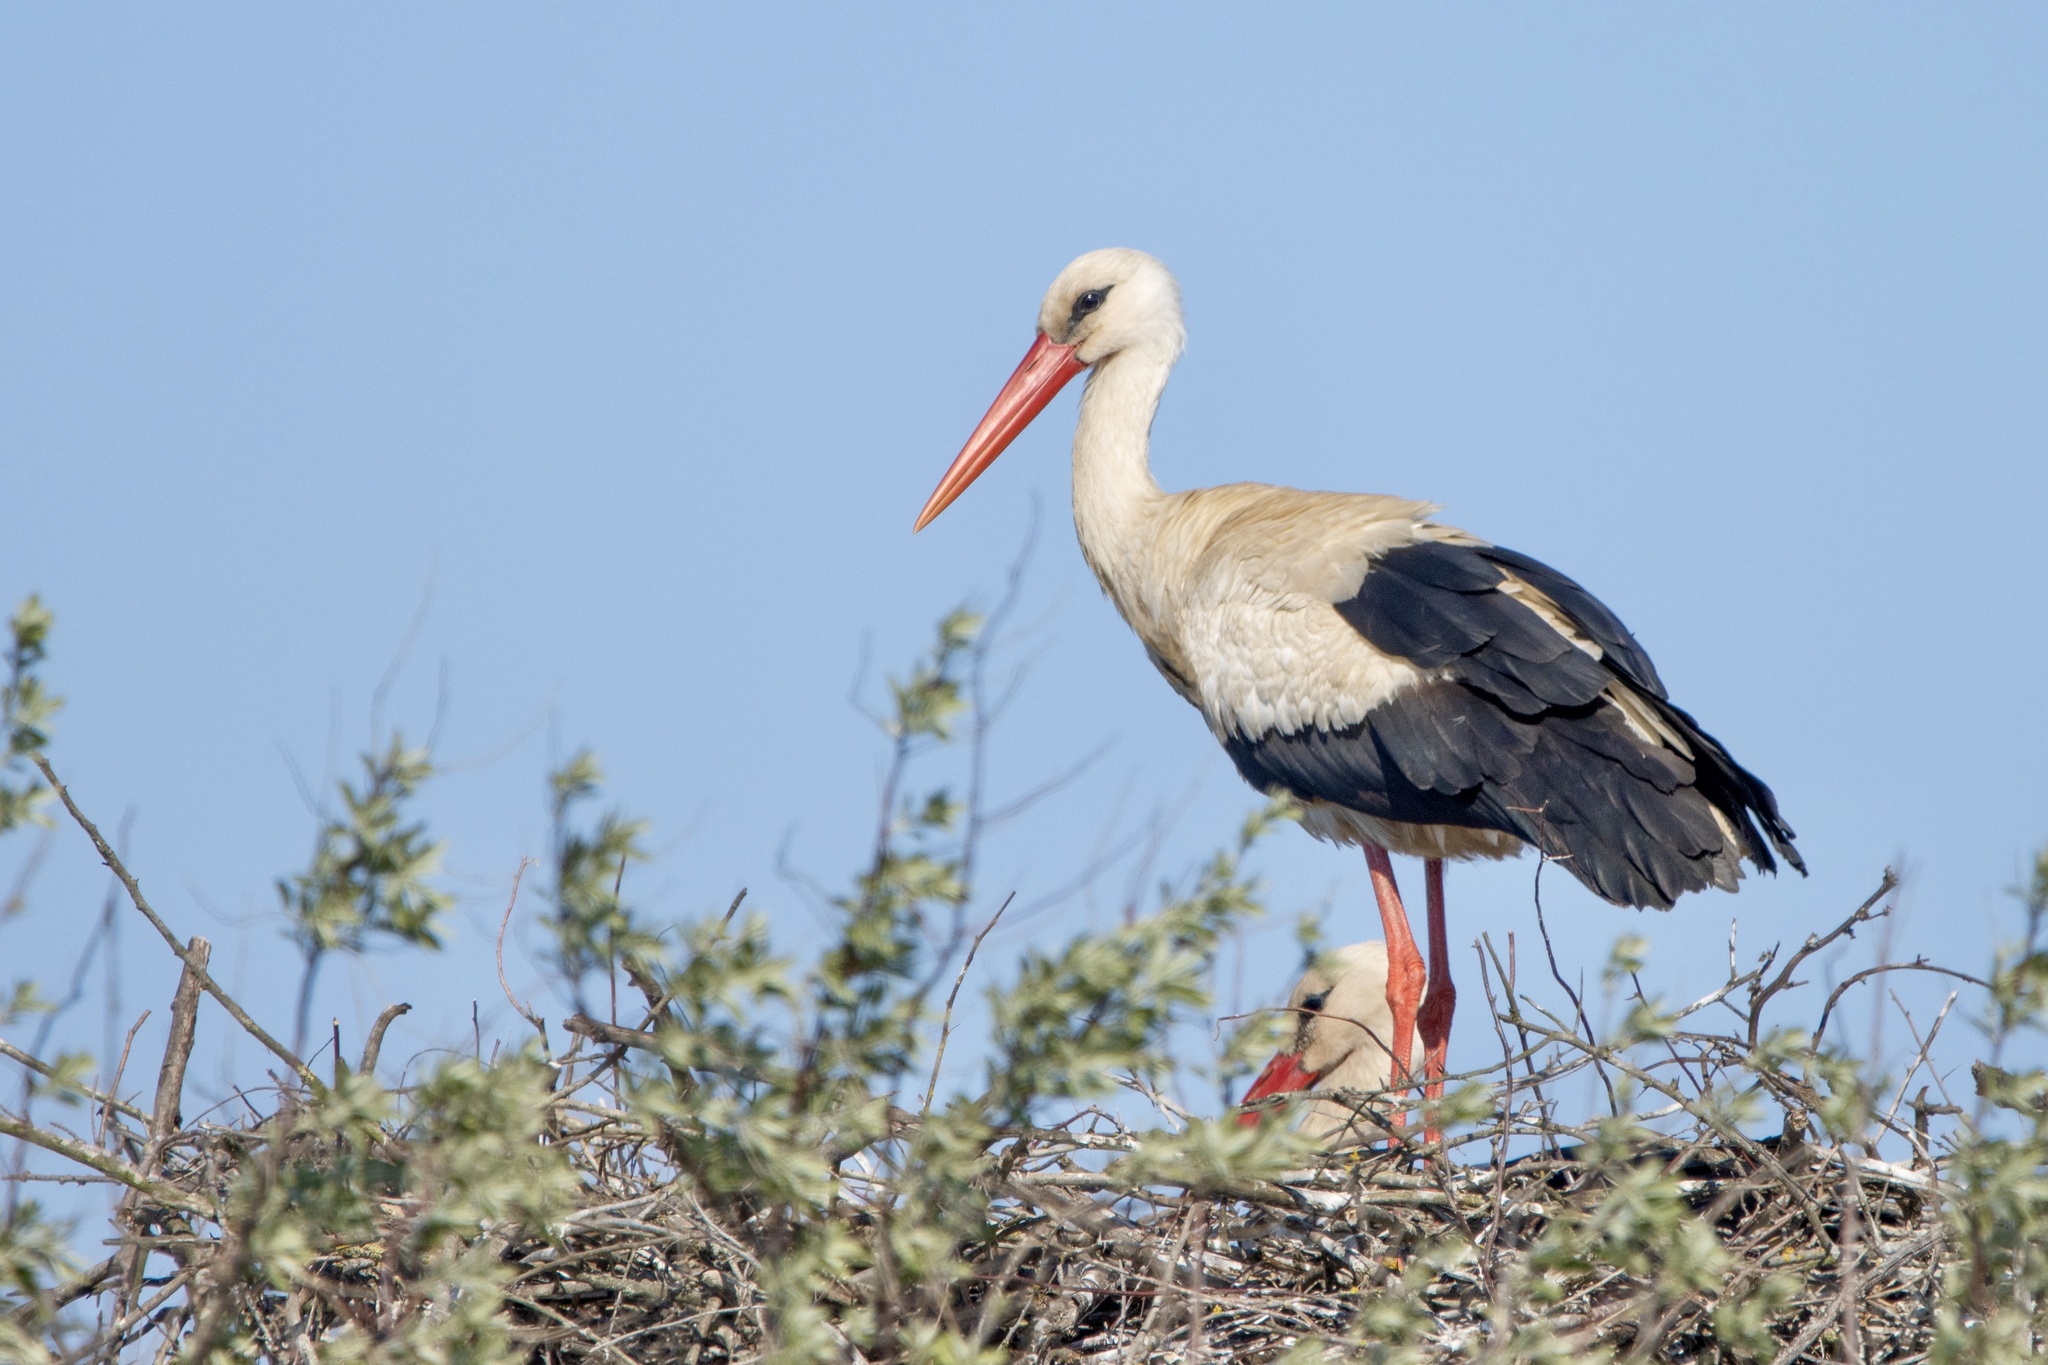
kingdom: Animalia
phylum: Chordata
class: Aves
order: Ciconiiformes
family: Ciconiidae
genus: Ciconia
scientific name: Ciconia ciconia
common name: White stork
